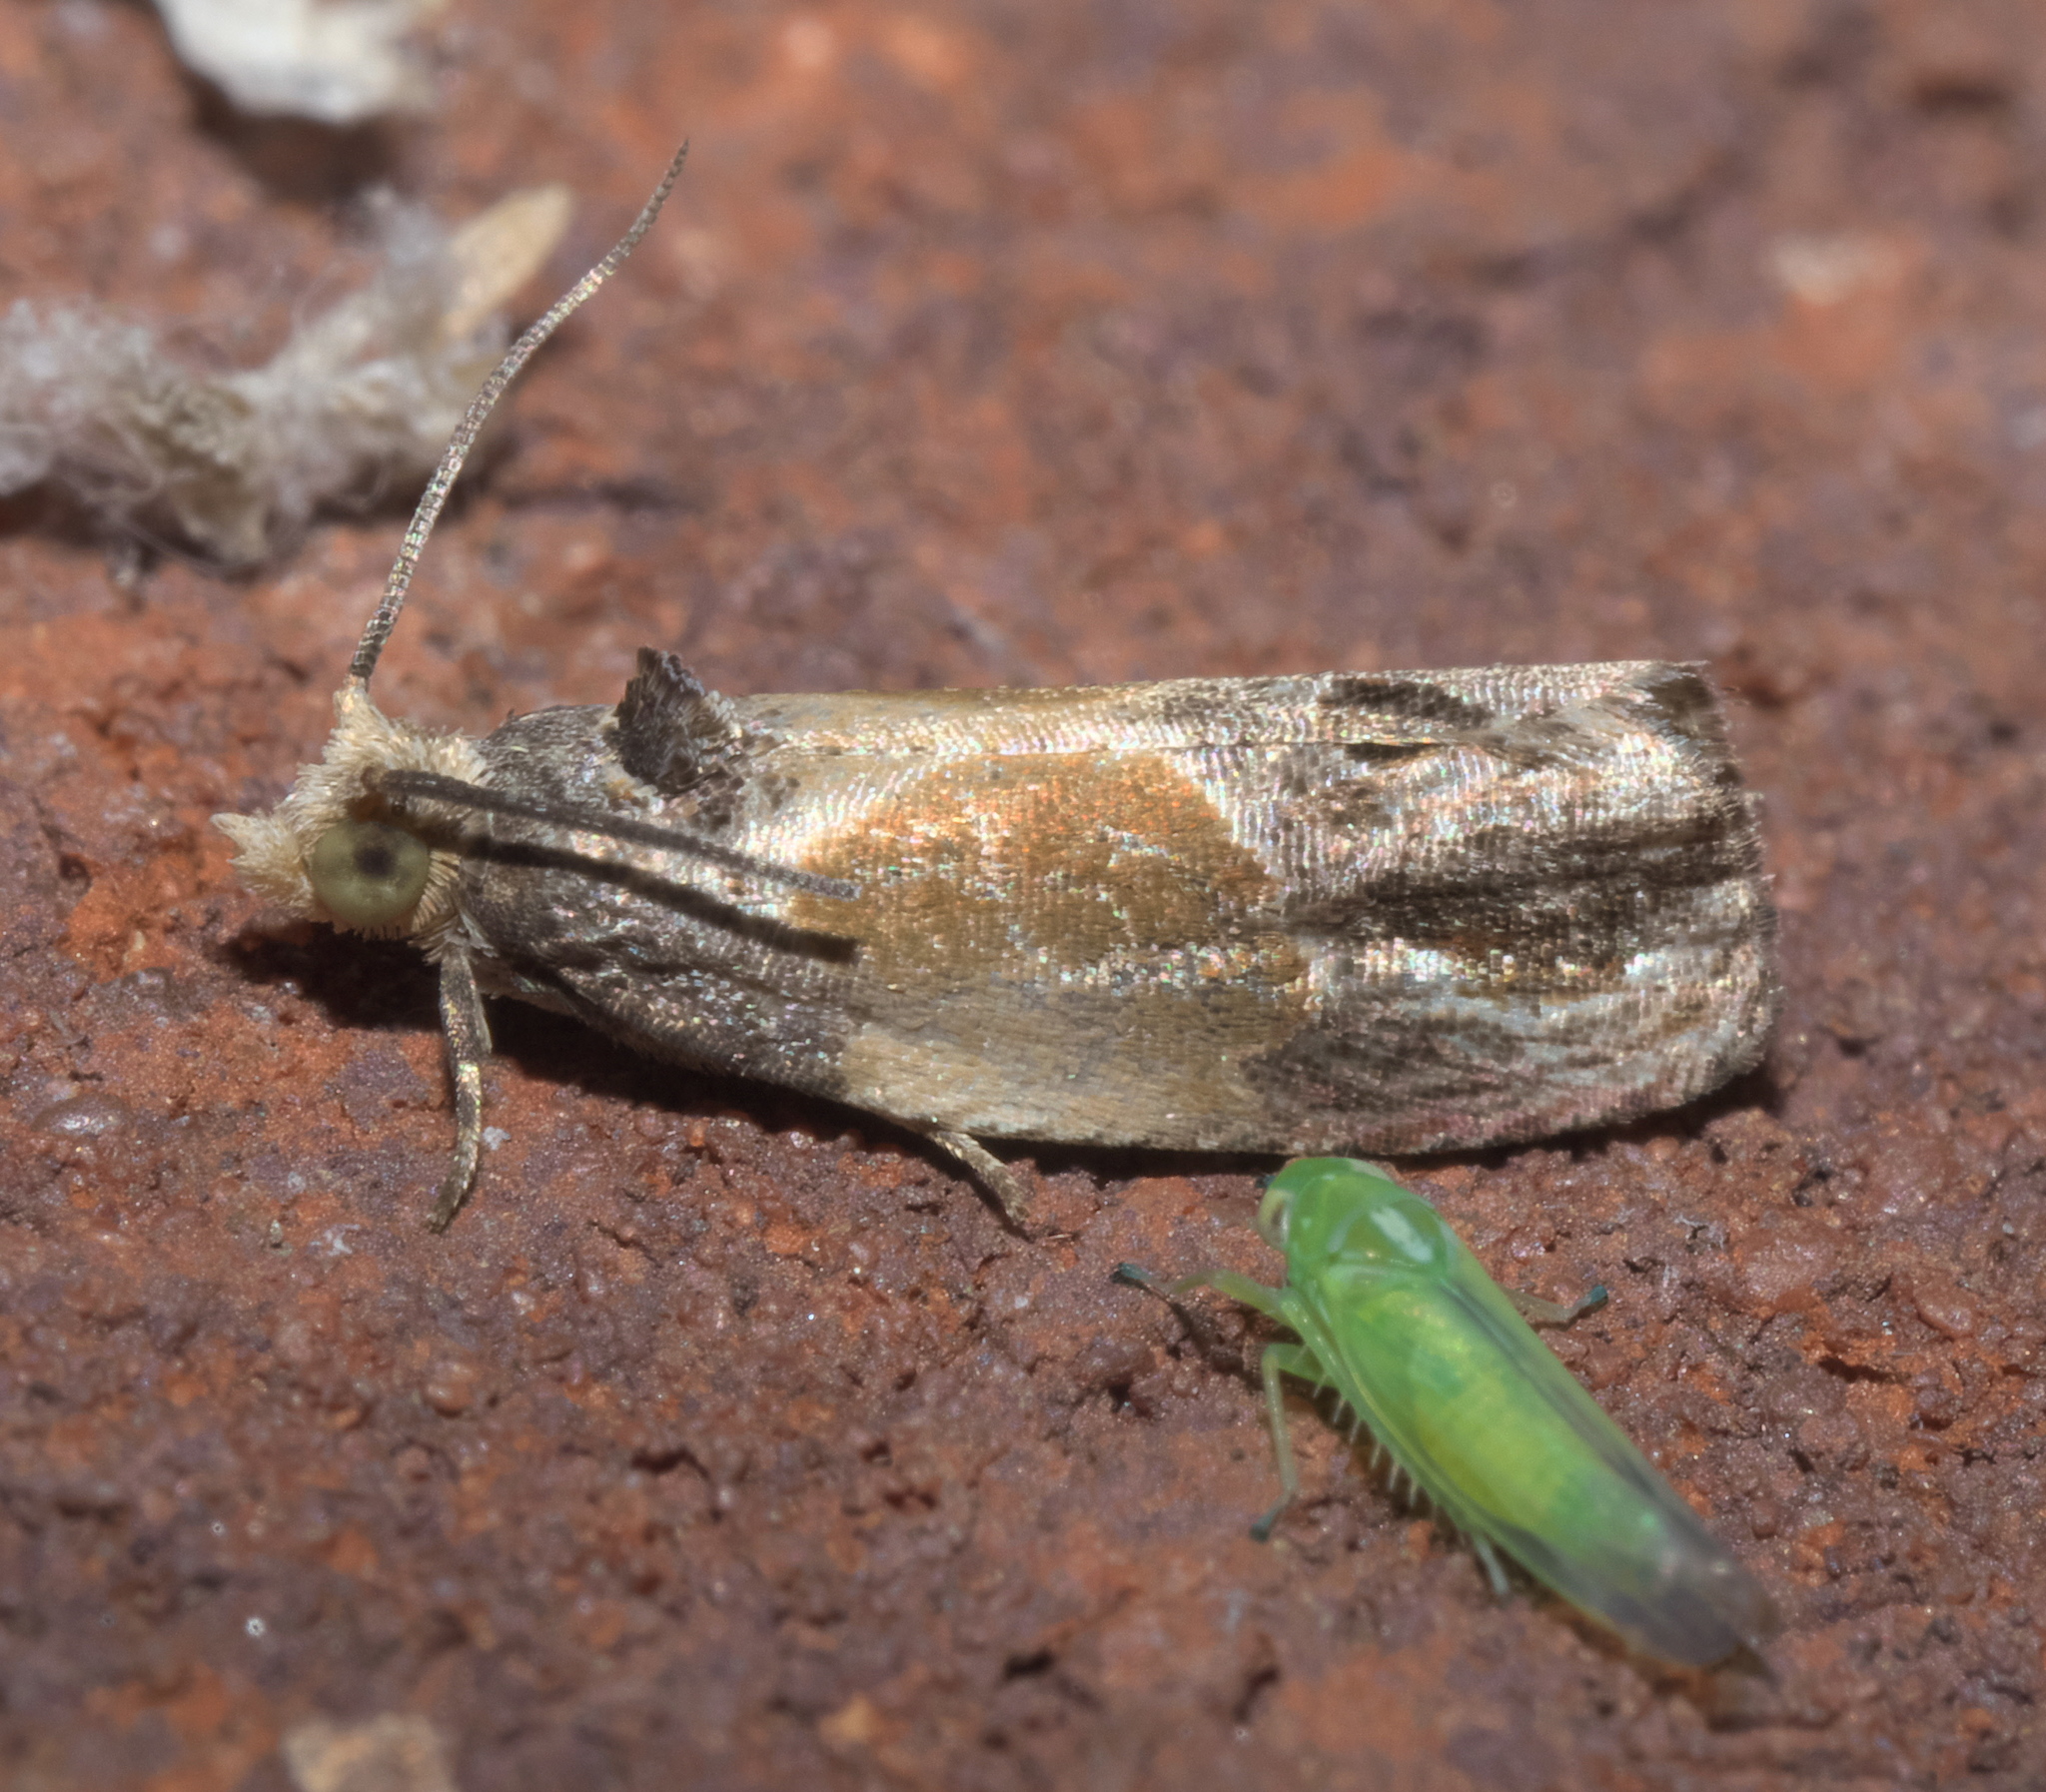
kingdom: Animalia
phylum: Arthropoda
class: Insecta
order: Lepidoptera
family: Tortricidae
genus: Eumarozia
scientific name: Eumarozia malachitana
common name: Sculptured moth
